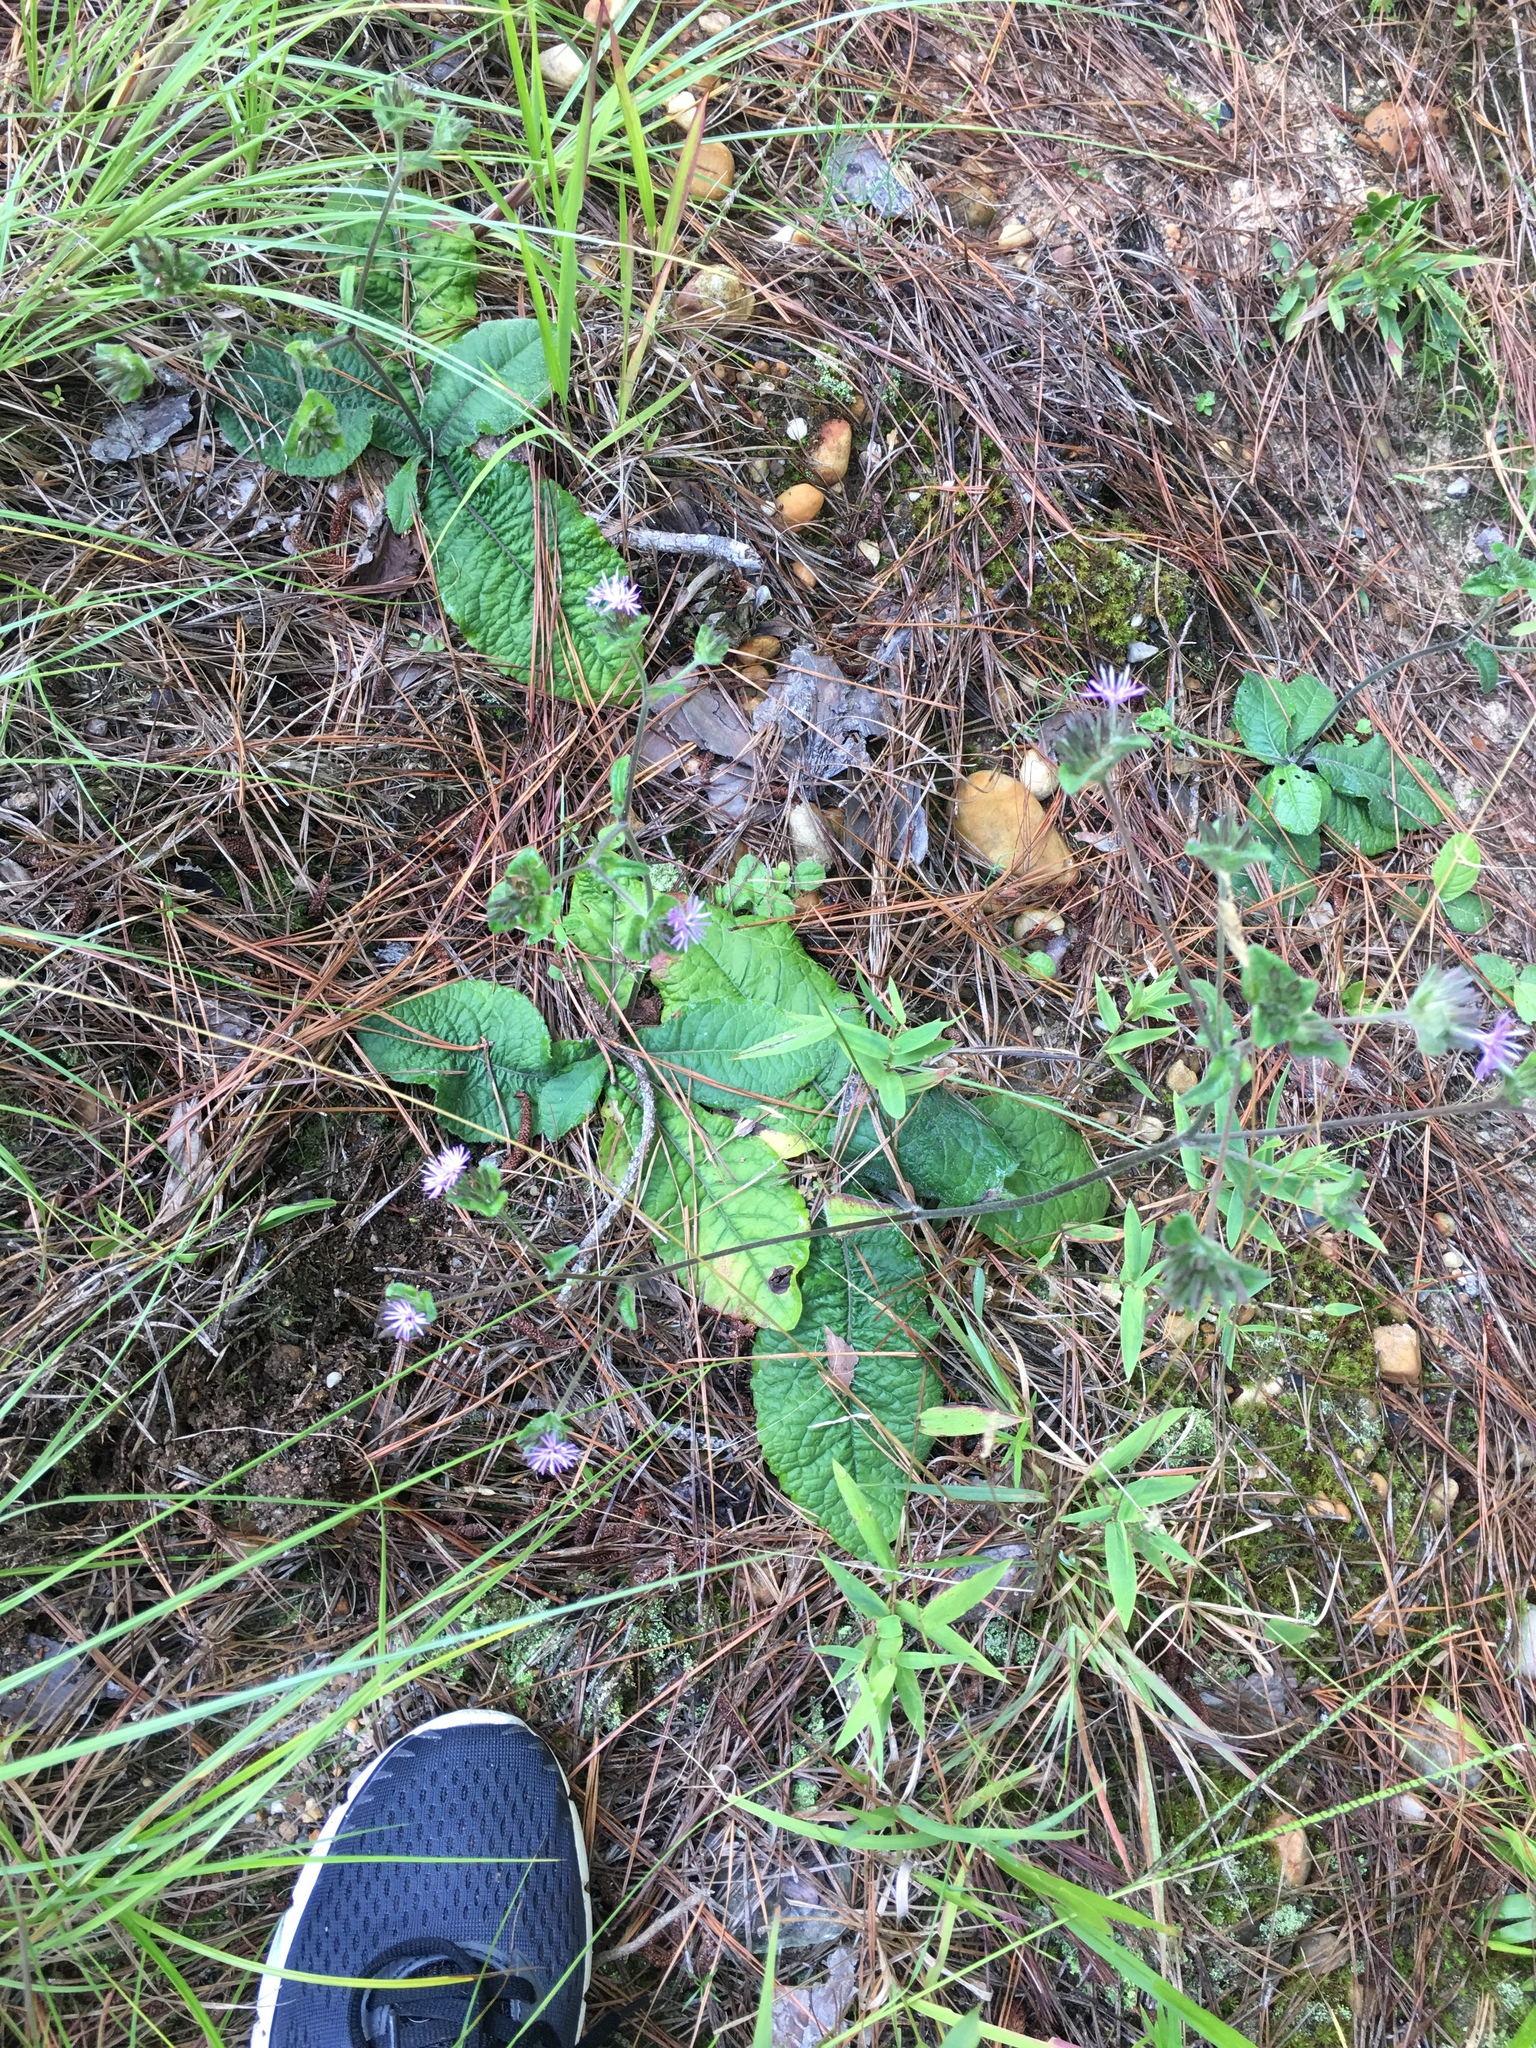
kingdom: Plantae
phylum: Tracheophyta
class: Magnoliopsida
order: Asterales
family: Asteraceae
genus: Elephantopus
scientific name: Elephantopus tomentosus
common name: Tobacco-weed
